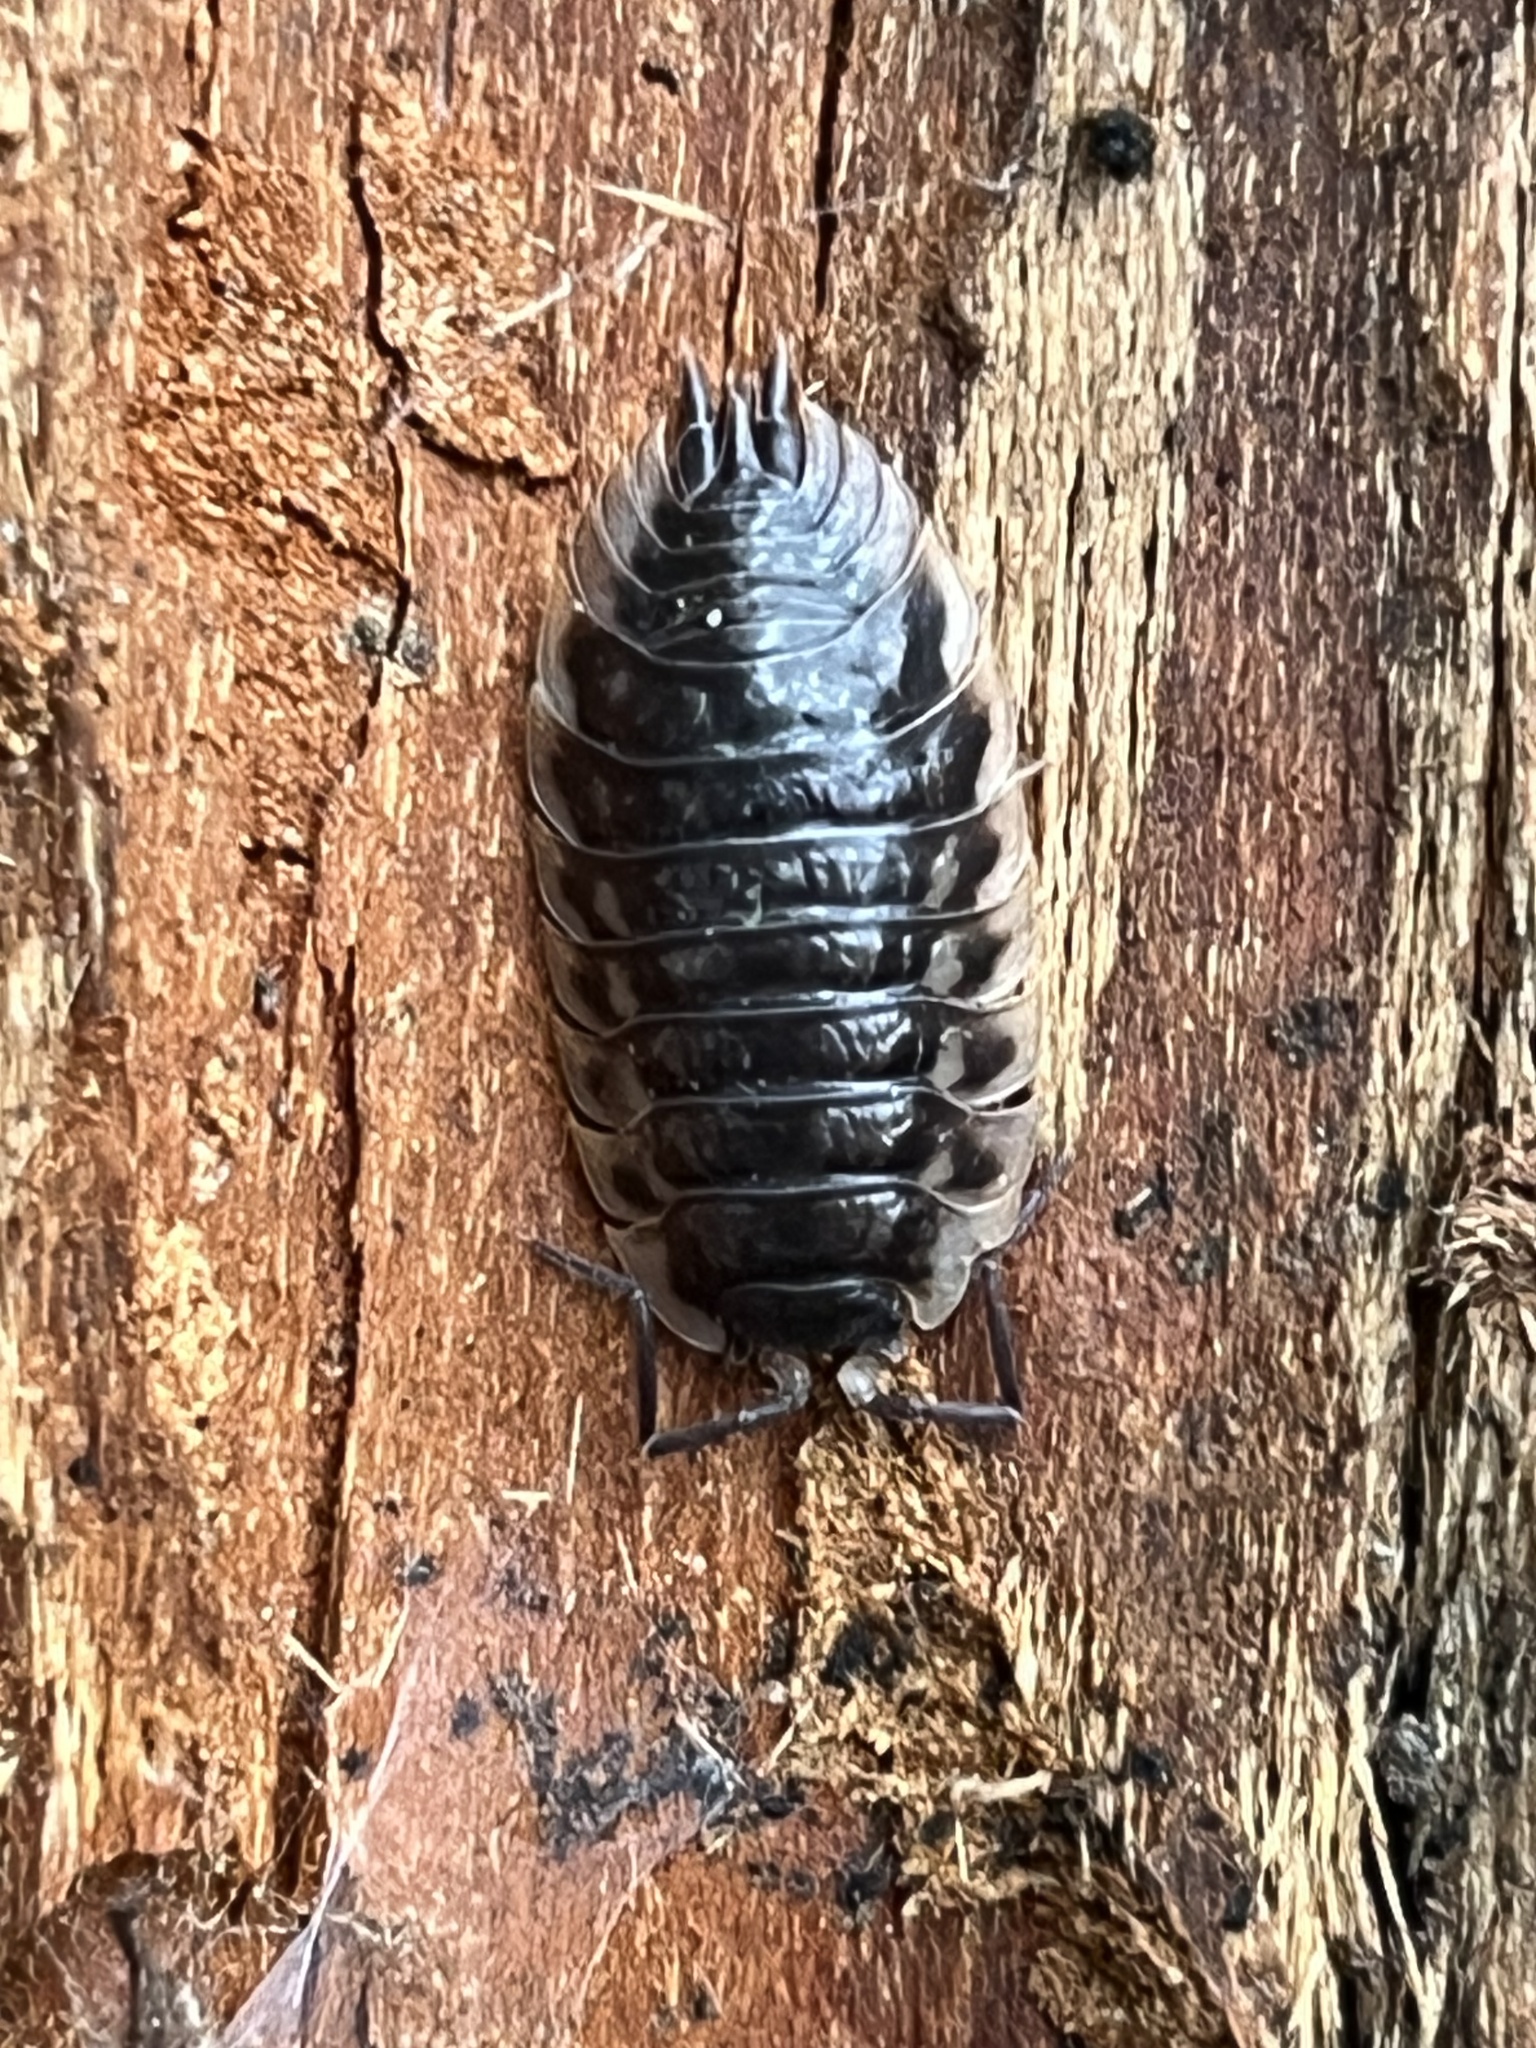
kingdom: Animalia
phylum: Arthropoda
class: Malacostraca
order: Isopoda
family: Oniscidae
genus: Oniscus
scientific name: Oniscus asellus
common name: Common shiny woodlouse
